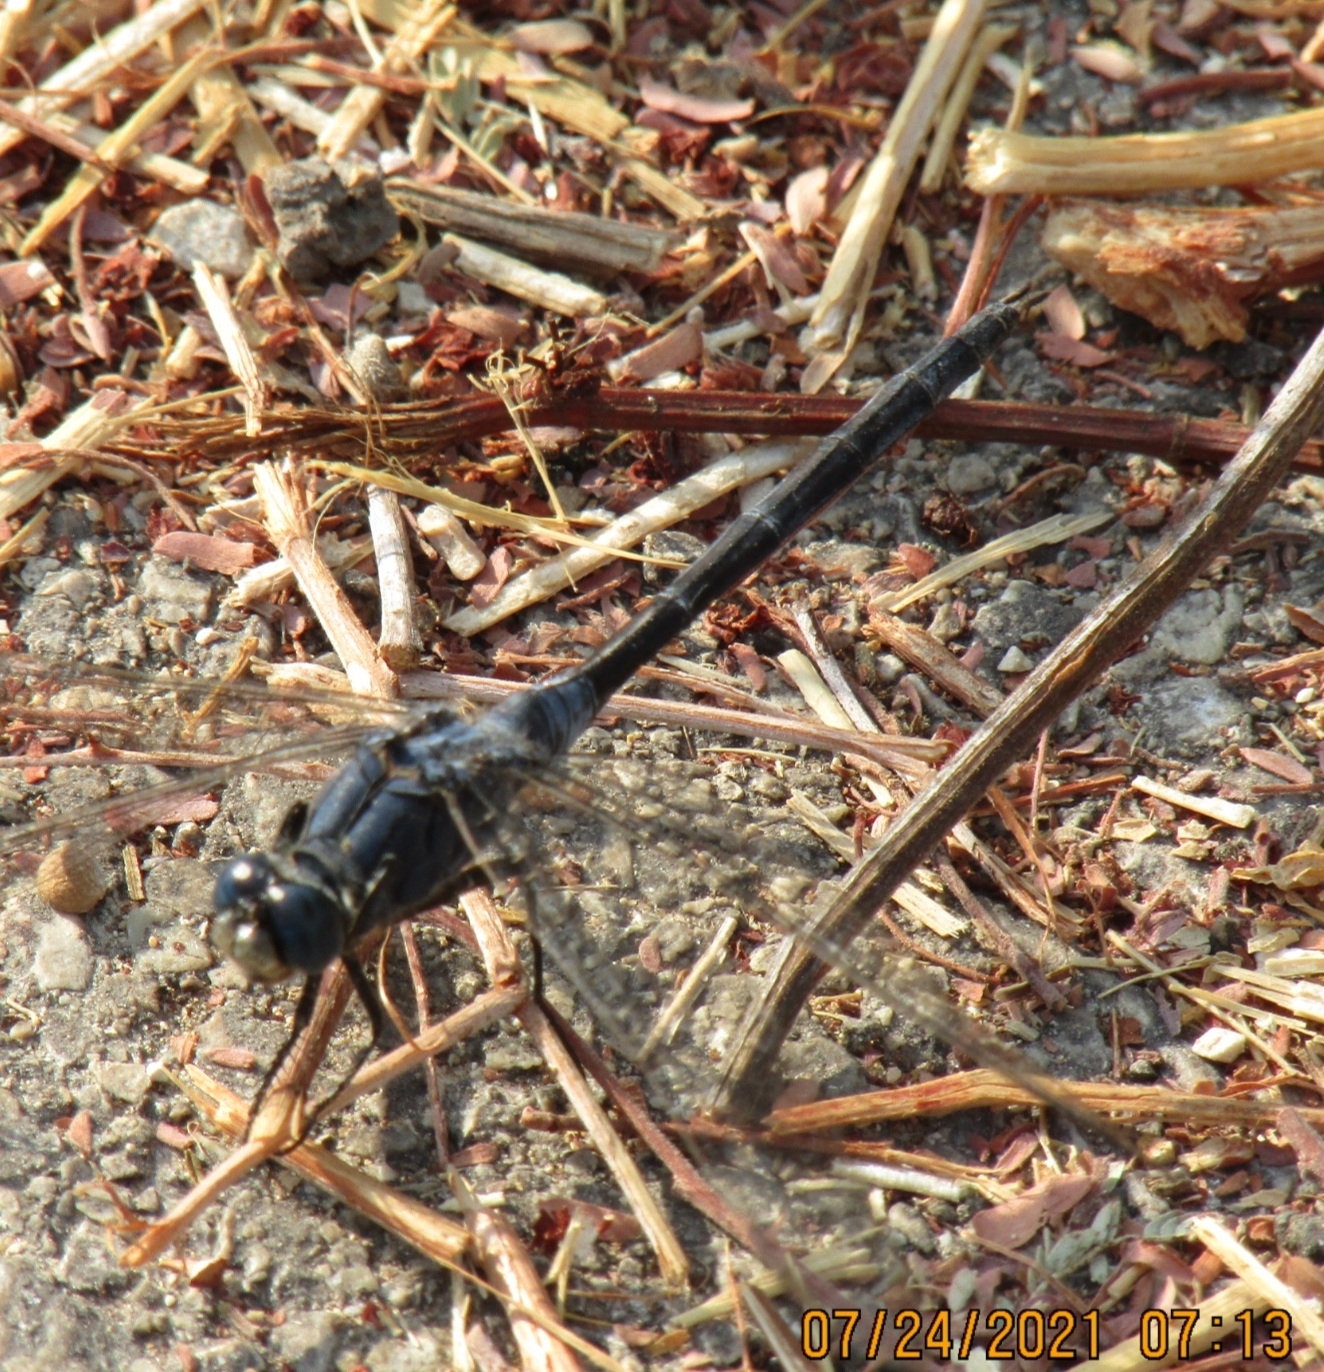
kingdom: Animalia
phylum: Arthropoda
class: Insecta
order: Odonata
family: Libellulidae
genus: Orthetrum
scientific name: Orthetrum trinacria
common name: Long skimmer
